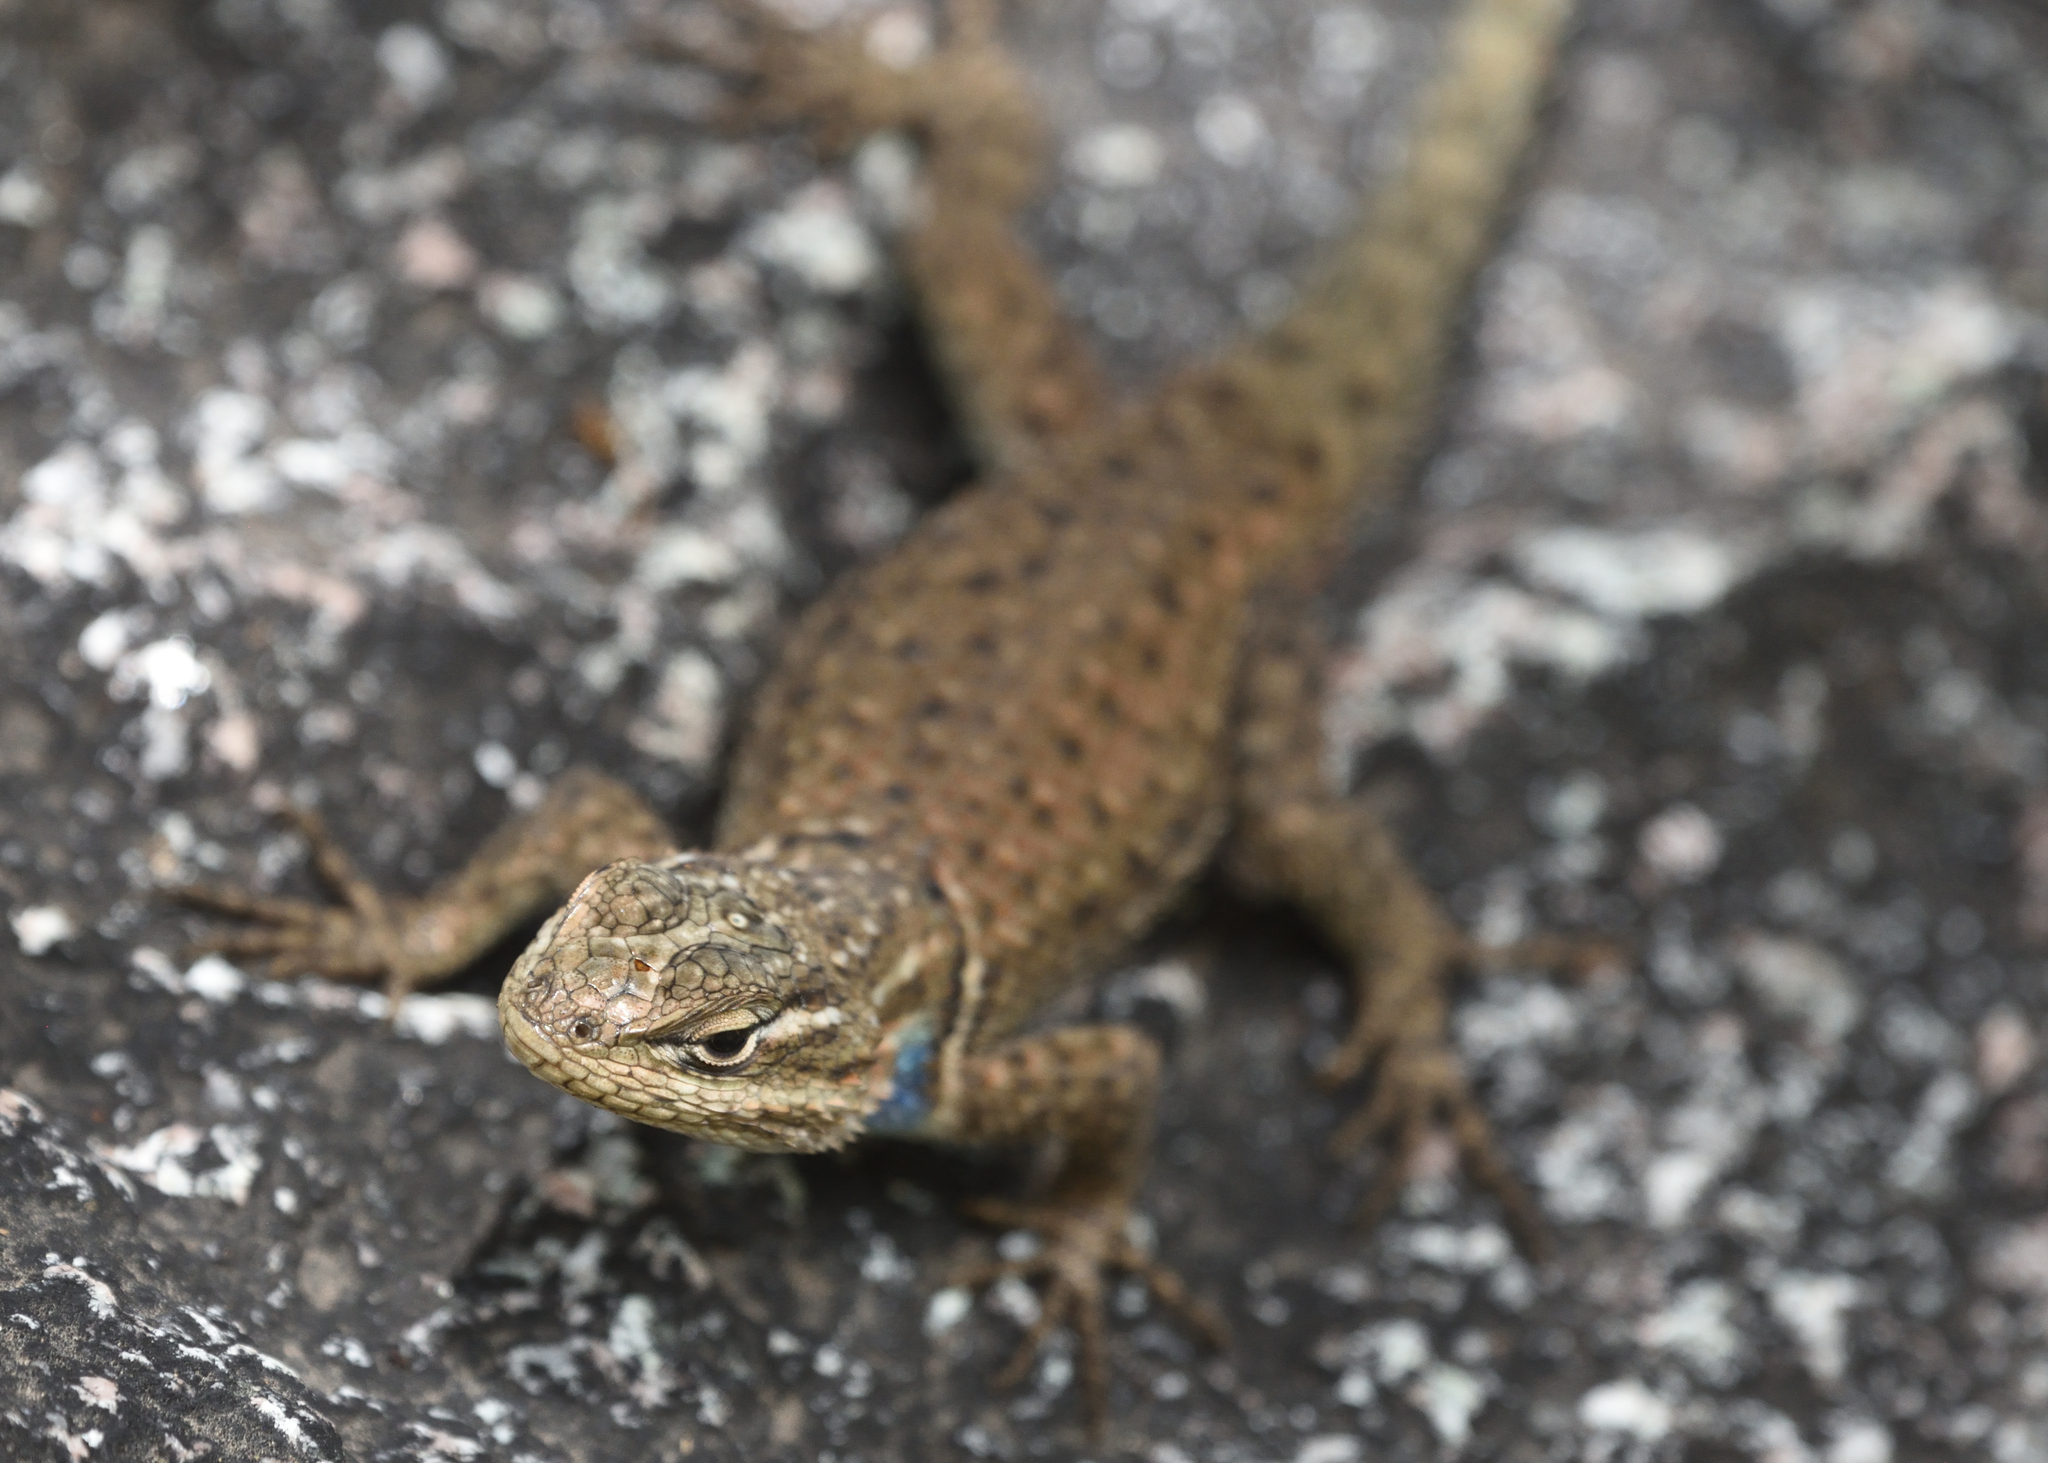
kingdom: Animalia
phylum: Chordata
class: Squamata
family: Phrynosomatidae
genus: Sceloporus
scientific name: Sceloporus jarrovii
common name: Yarrow's spiny lizard
